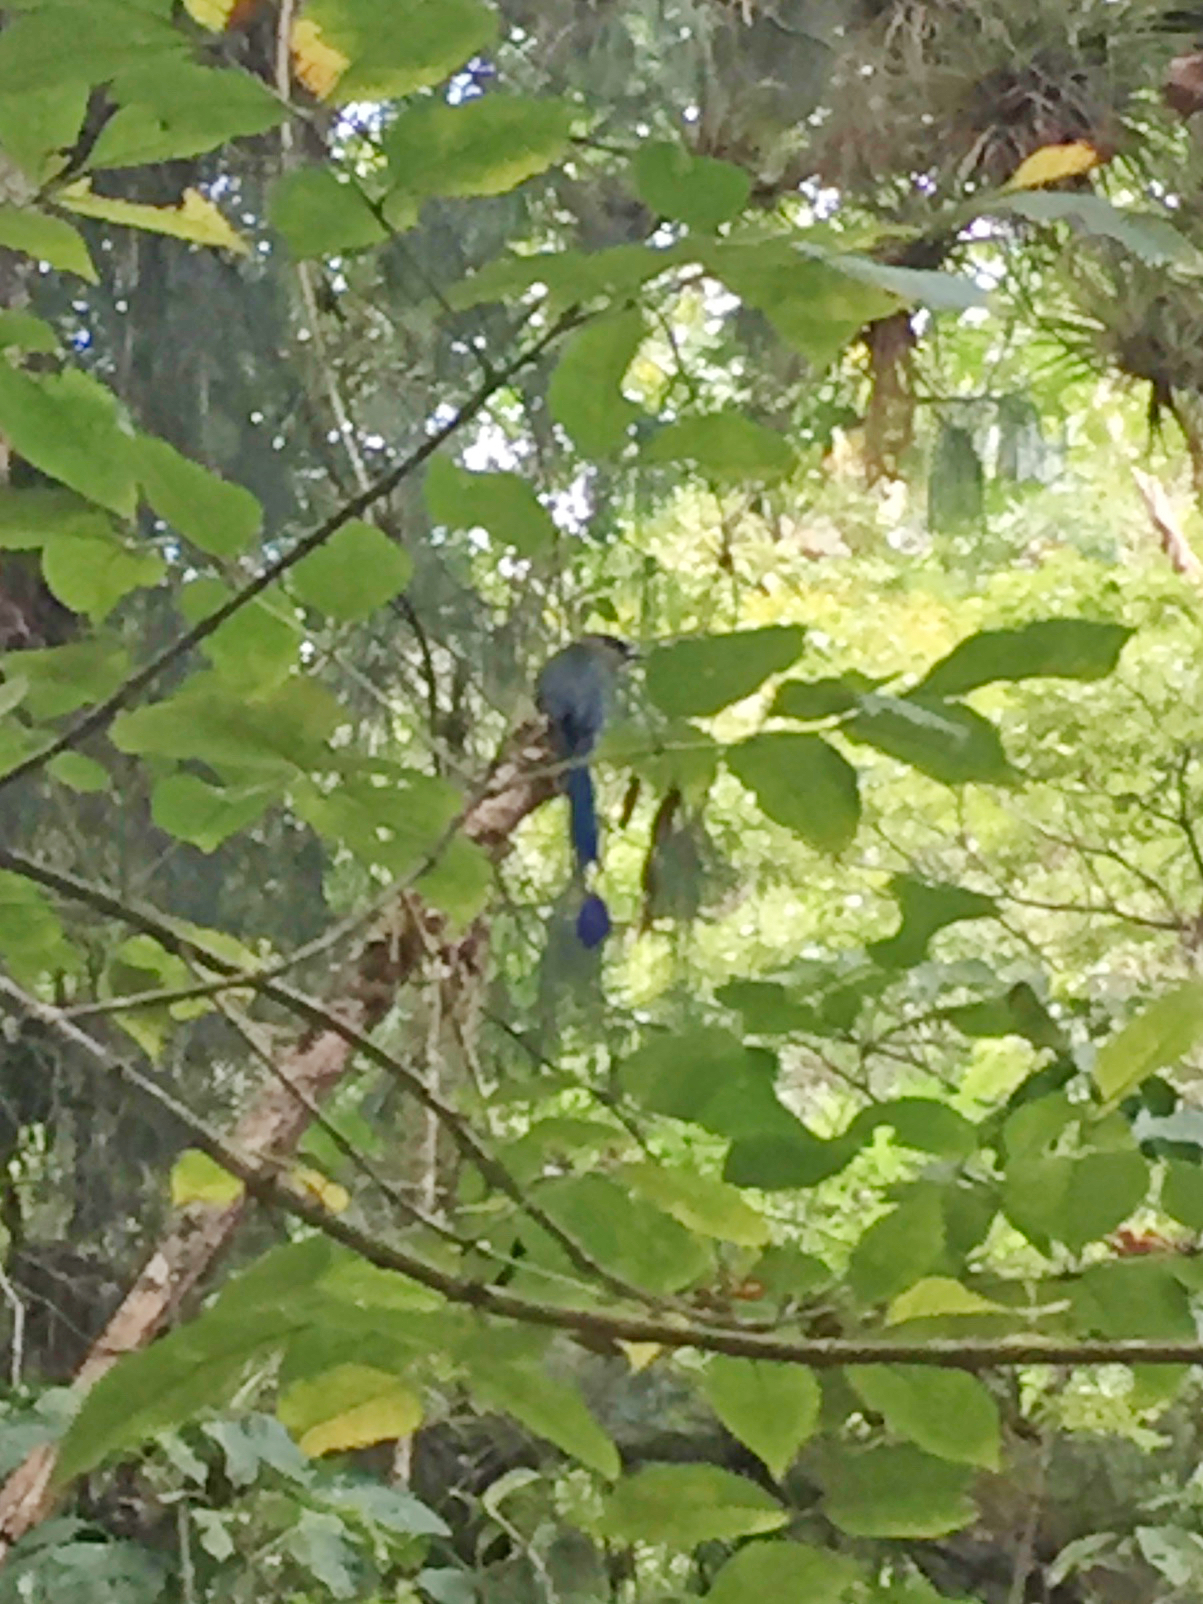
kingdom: Animalia
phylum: Chordata
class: Aves
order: Coraciiformes
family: Momotidae
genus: Momotus
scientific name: Momotus aequatorialis
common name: Andean motmot
